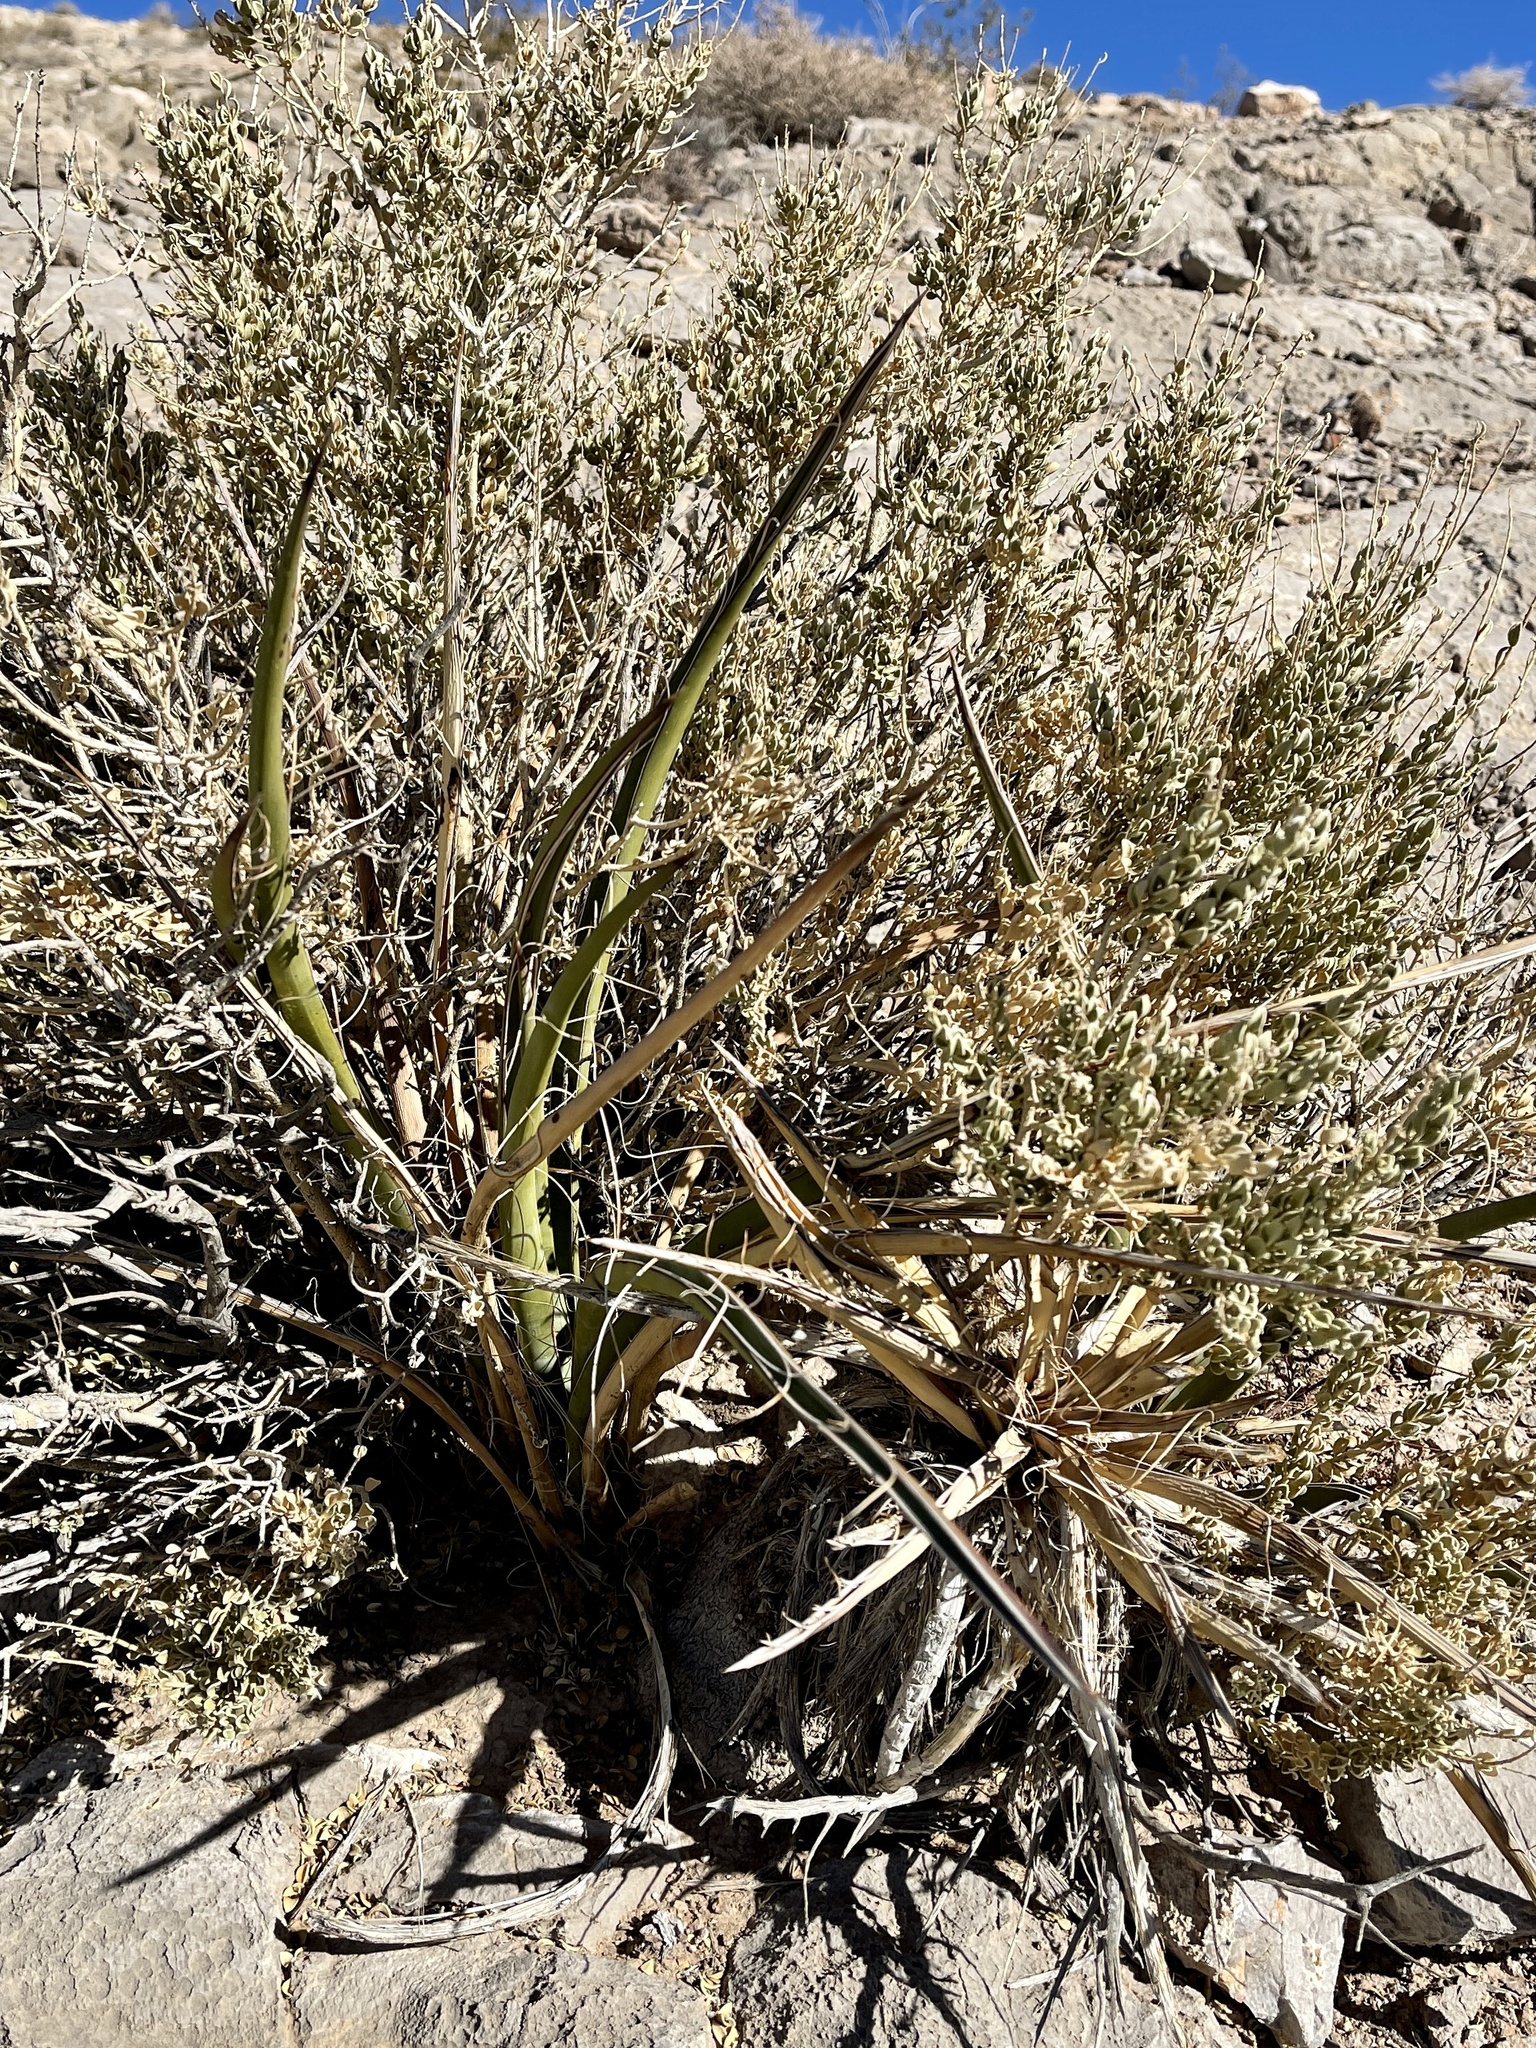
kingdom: Plantae
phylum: Tracheophyta
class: Liliopsida
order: Asparagales
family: Asparagaceae
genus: Yucca
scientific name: Yucca schidigera
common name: Mojave yucca
